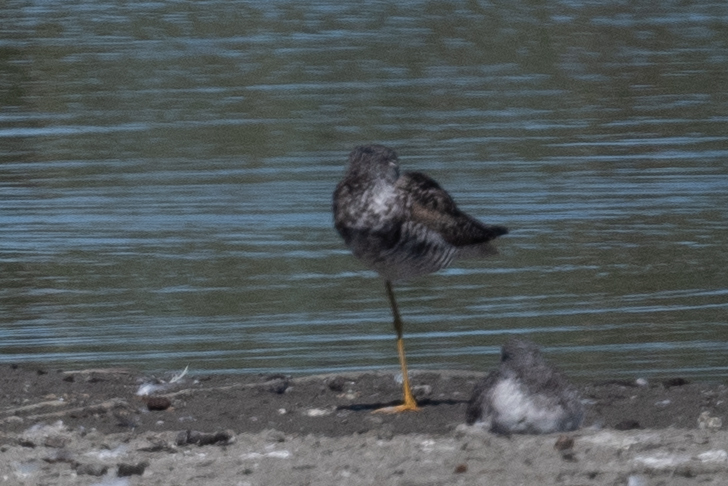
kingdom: Animalia
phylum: Chordata
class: Aves
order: Charadriiformes
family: Scolopacidae
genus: Tringa
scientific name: Tringa melanoleuca
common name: Greater yellowlegs
